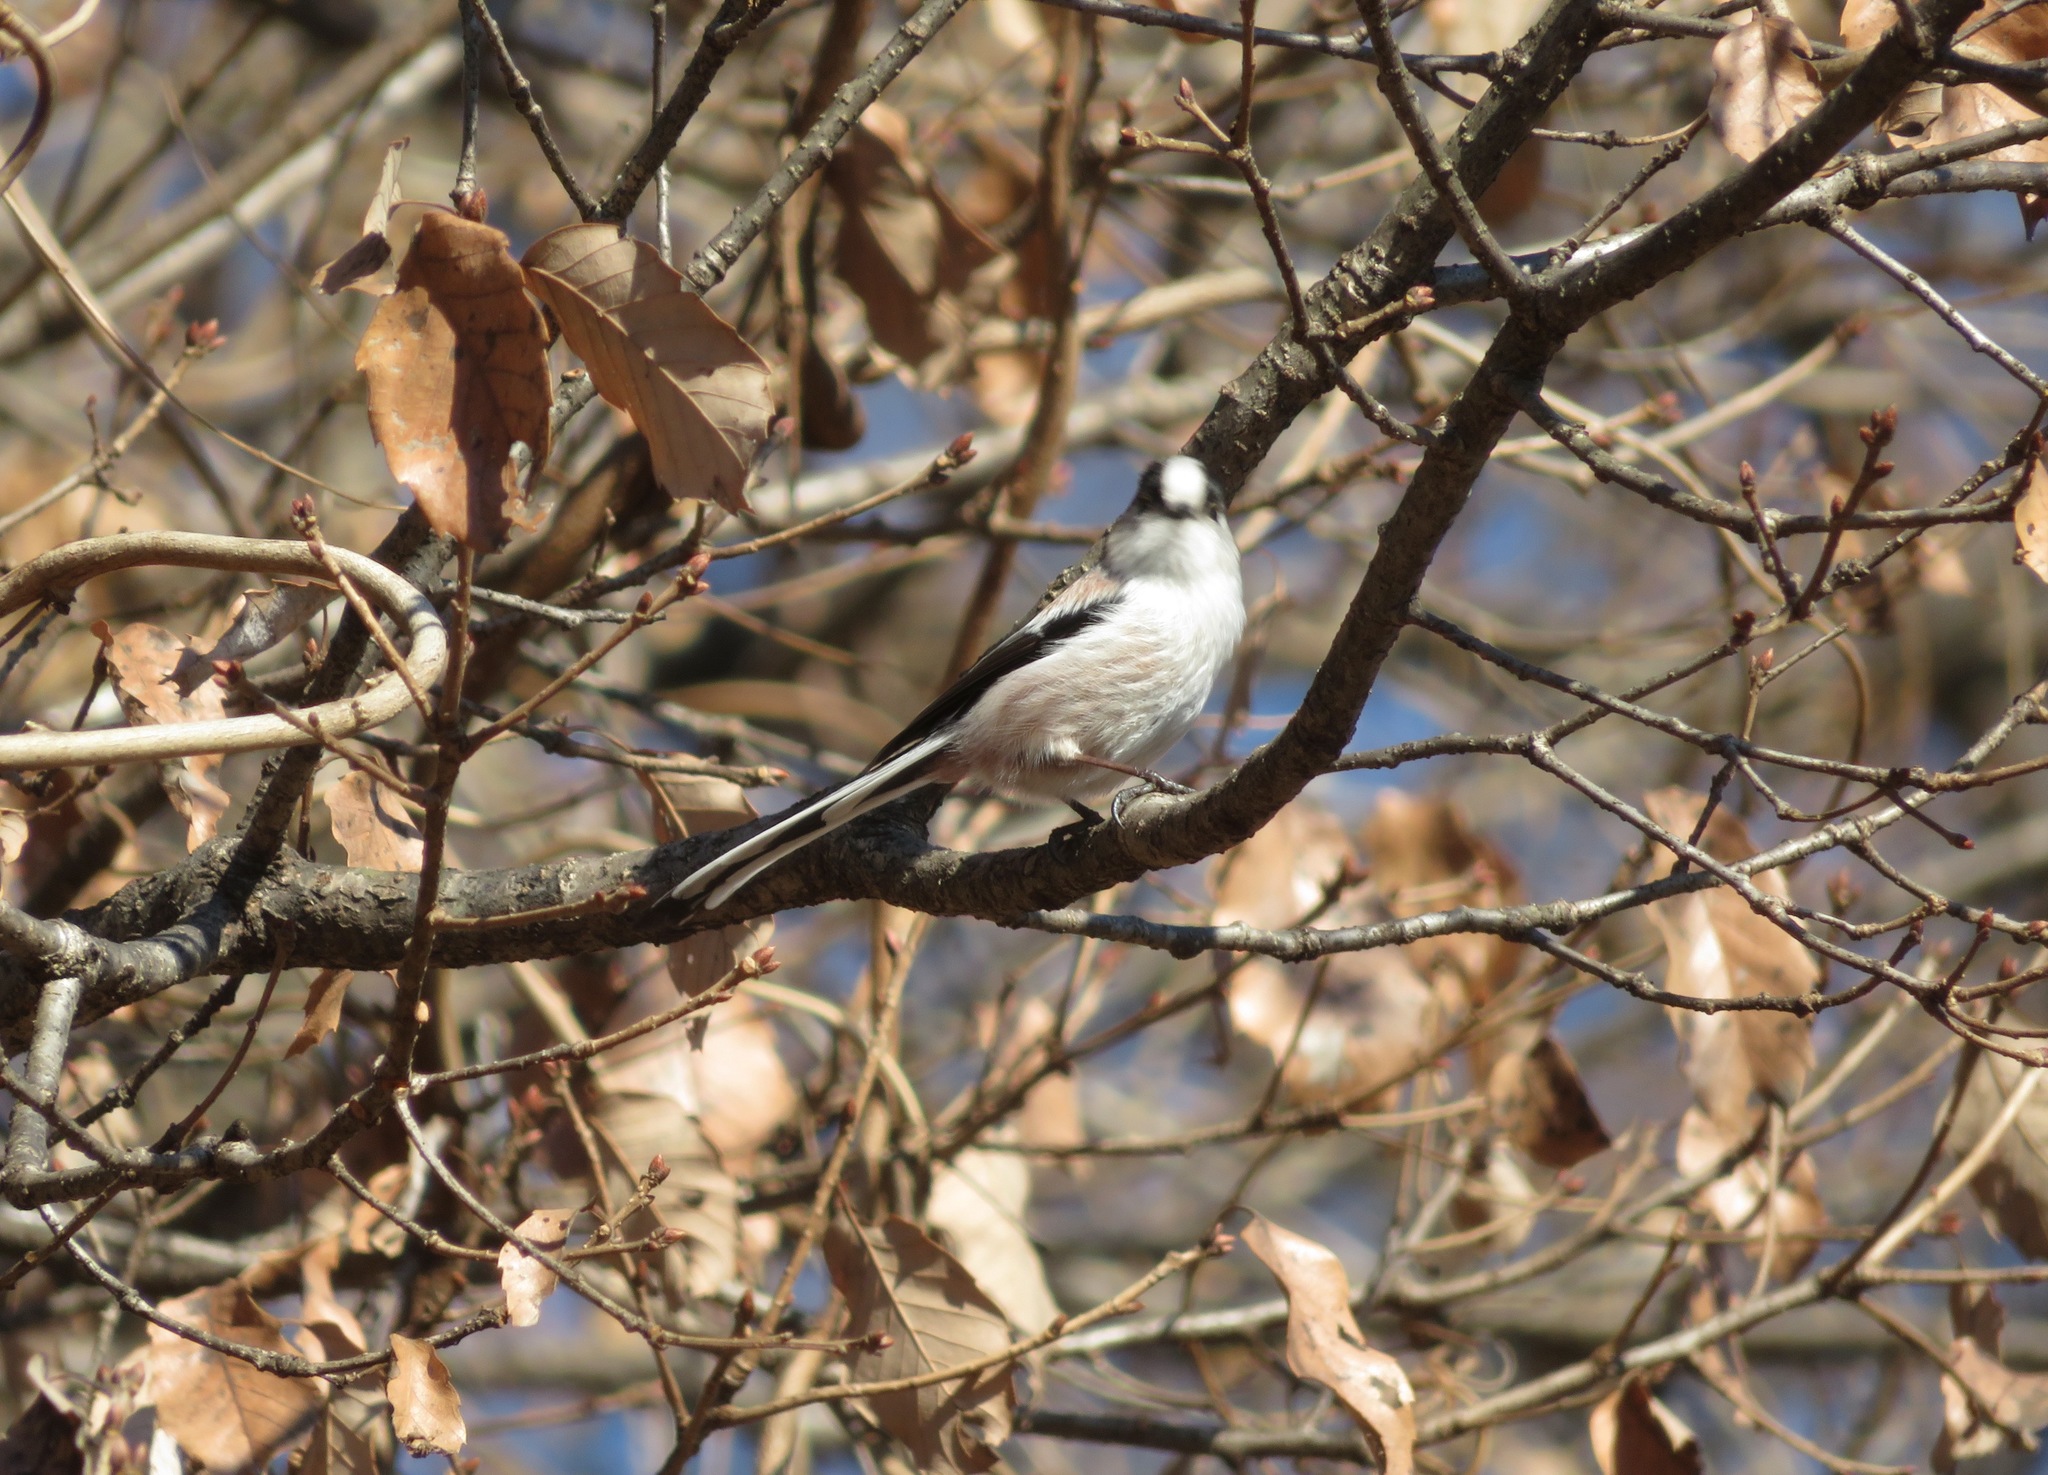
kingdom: Animalia
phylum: Chordata
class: Aves
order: Passeriformes
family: Aegithalidae
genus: Aegithalos
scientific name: Aegithalos caudatus
